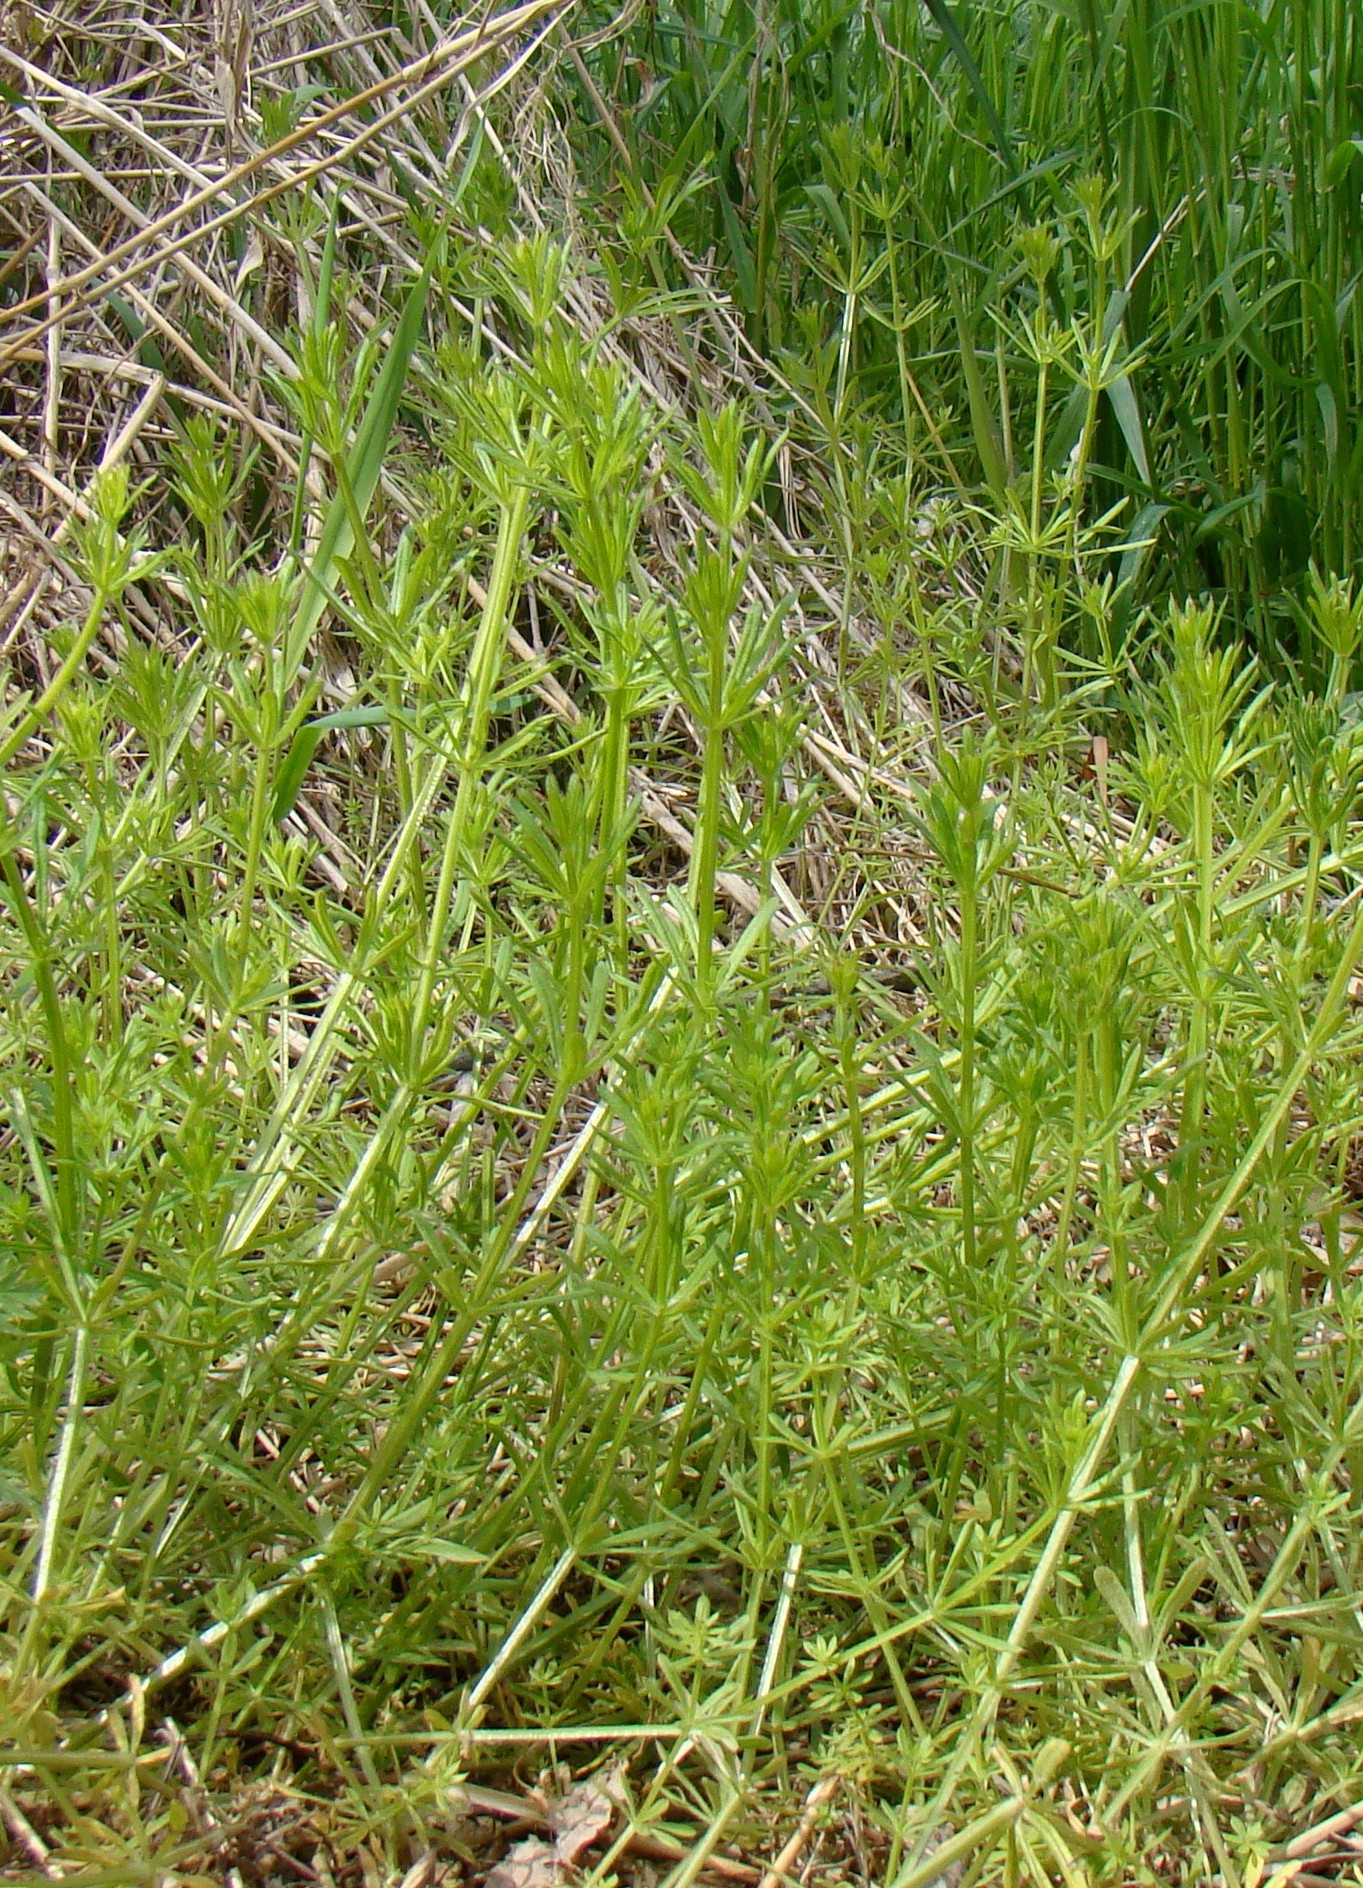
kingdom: Plantae
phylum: Tracheophyta
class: Magnoliopsida
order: Gentianales
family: Rubiaceae
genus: Galium
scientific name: Galium aparine
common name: Cleavers
